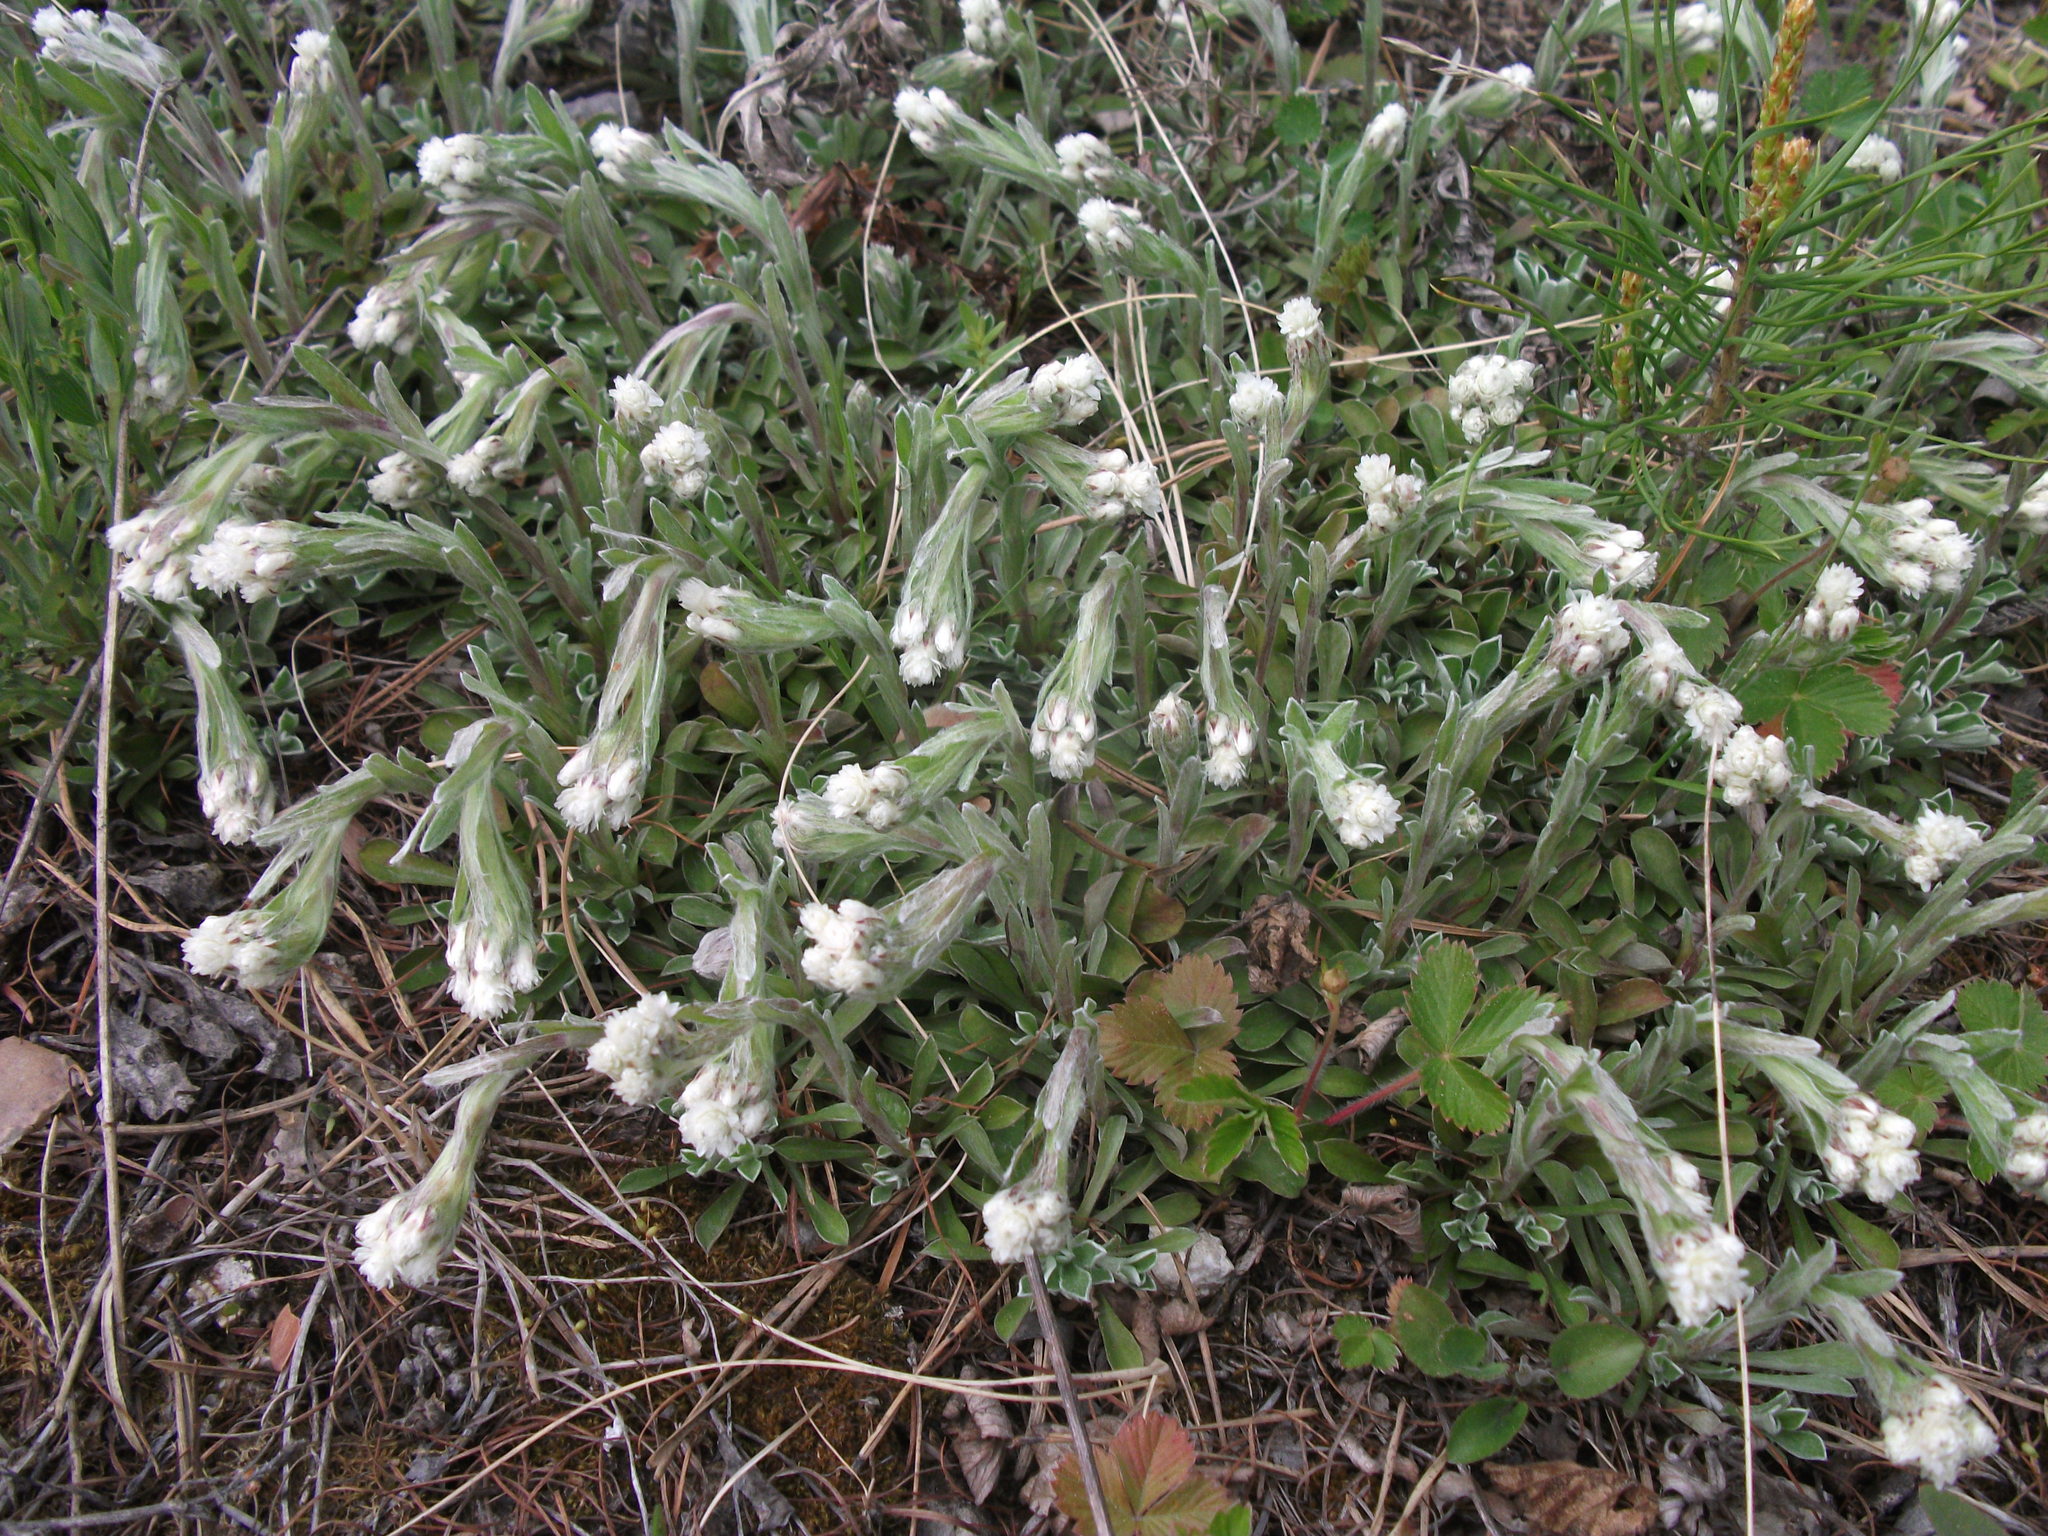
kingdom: Plantae
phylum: Tracheophyta
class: Magnoliopsida
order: Asterales
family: Asteraceae
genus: Antennaria
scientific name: Antennaria dioica
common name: Mountain everlasting
